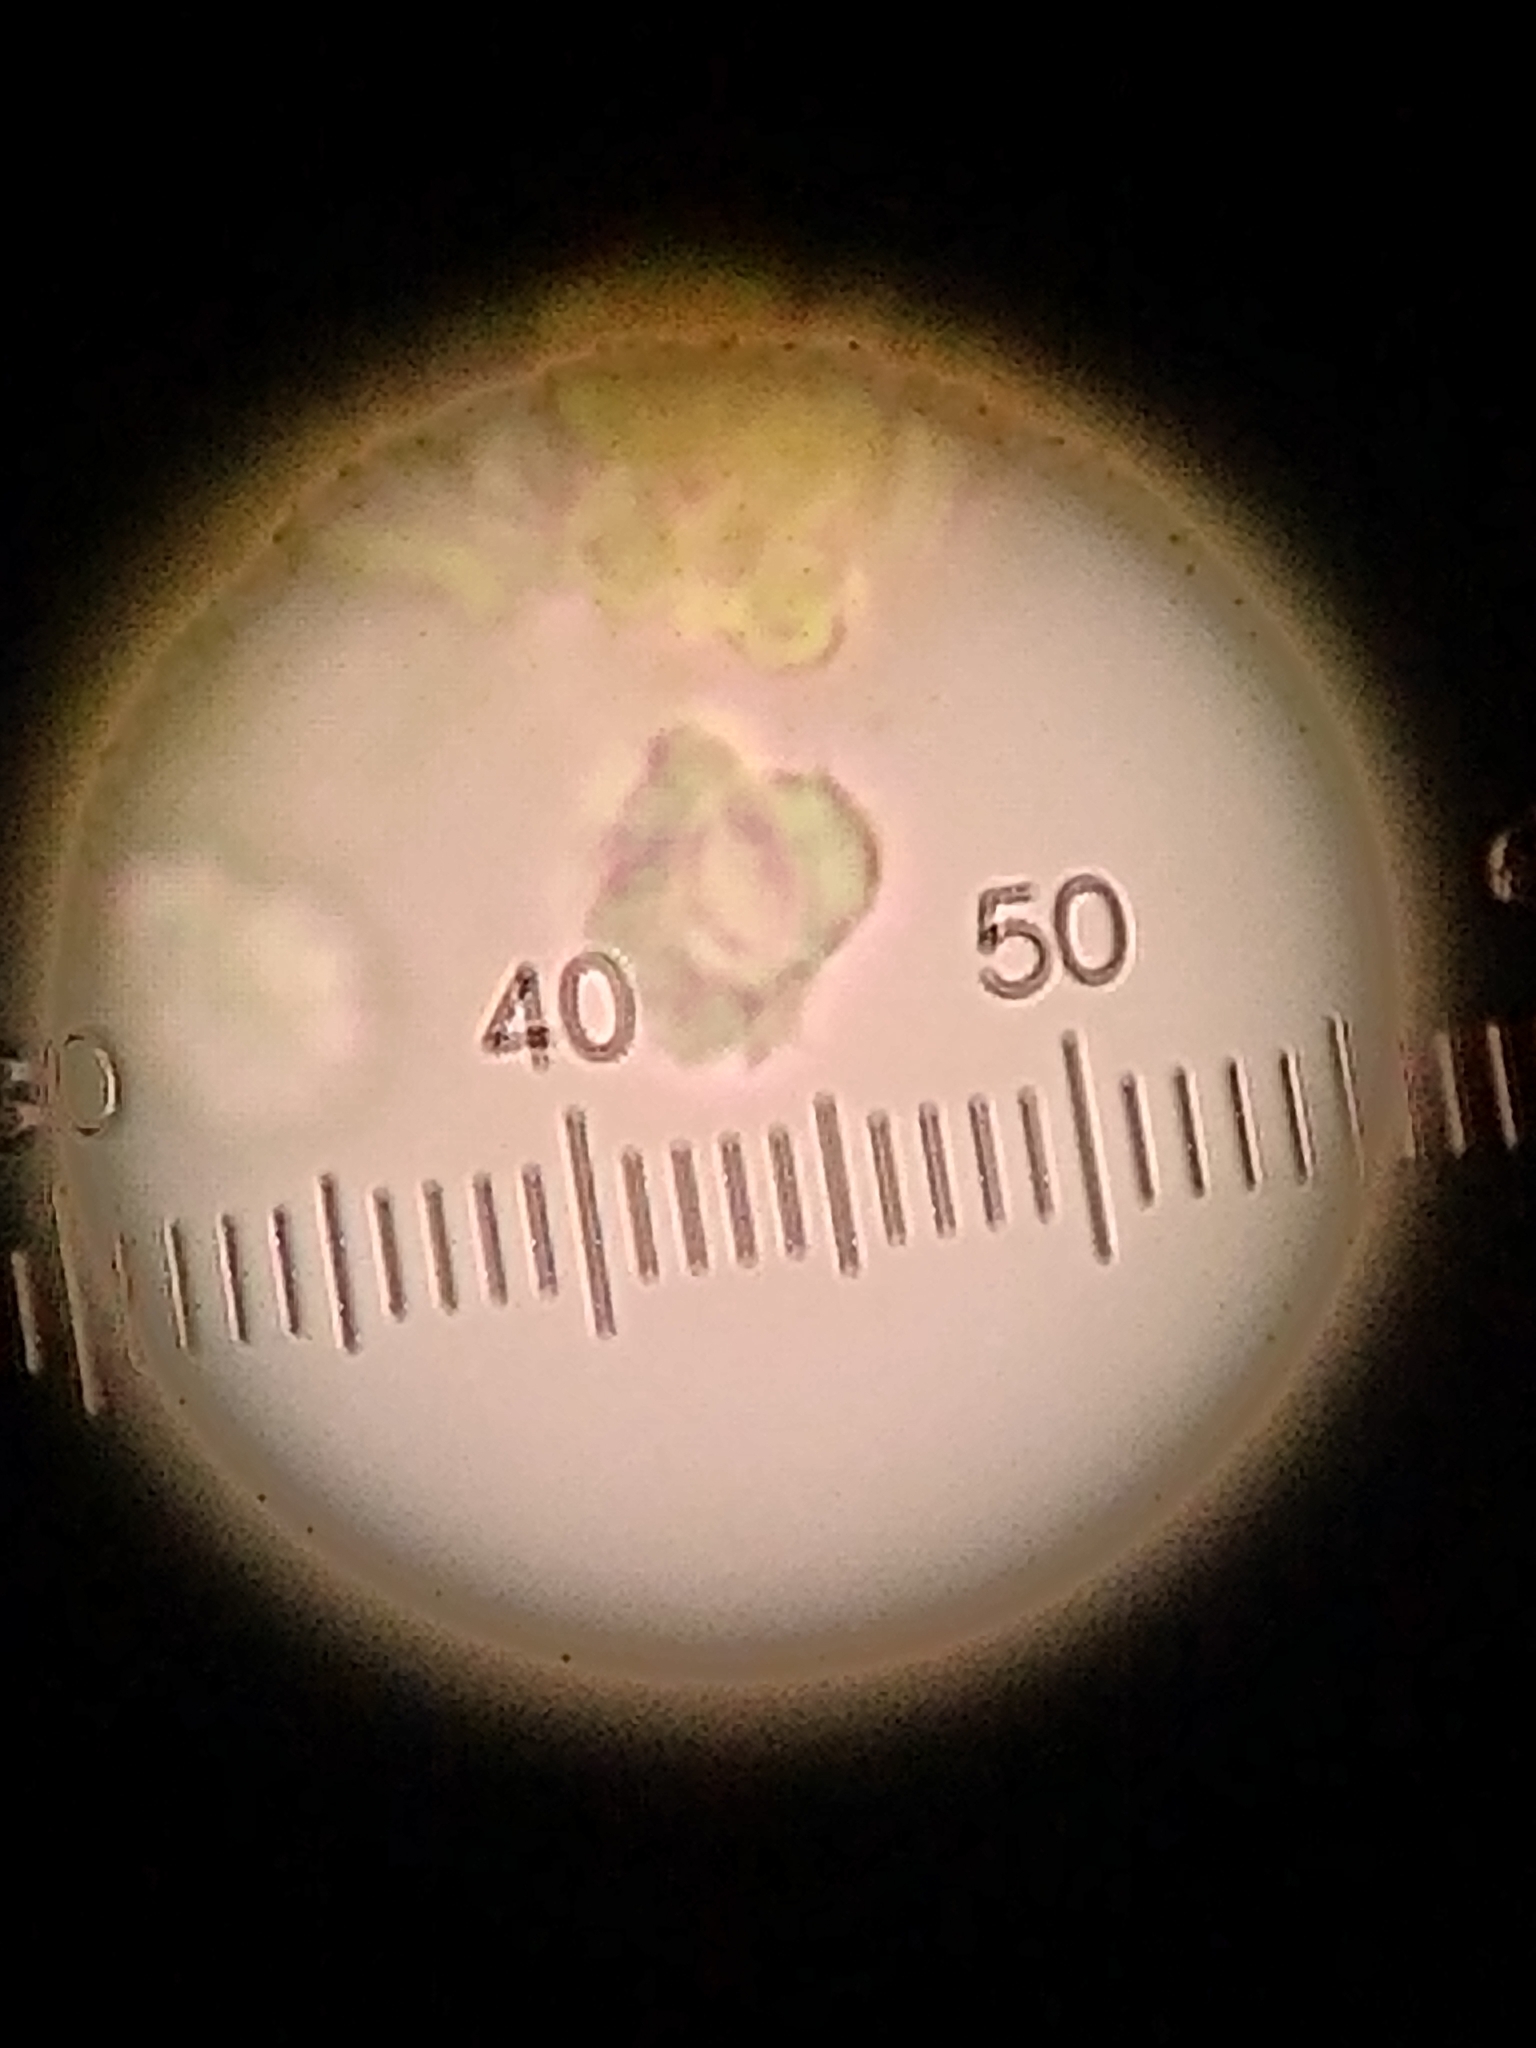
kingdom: Fungi
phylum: Basidiomycota
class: Agaricomycetes
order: Hymenochaetales
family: Schizoporaceae
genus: Xylodon
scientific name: Xylodon flaviporus
